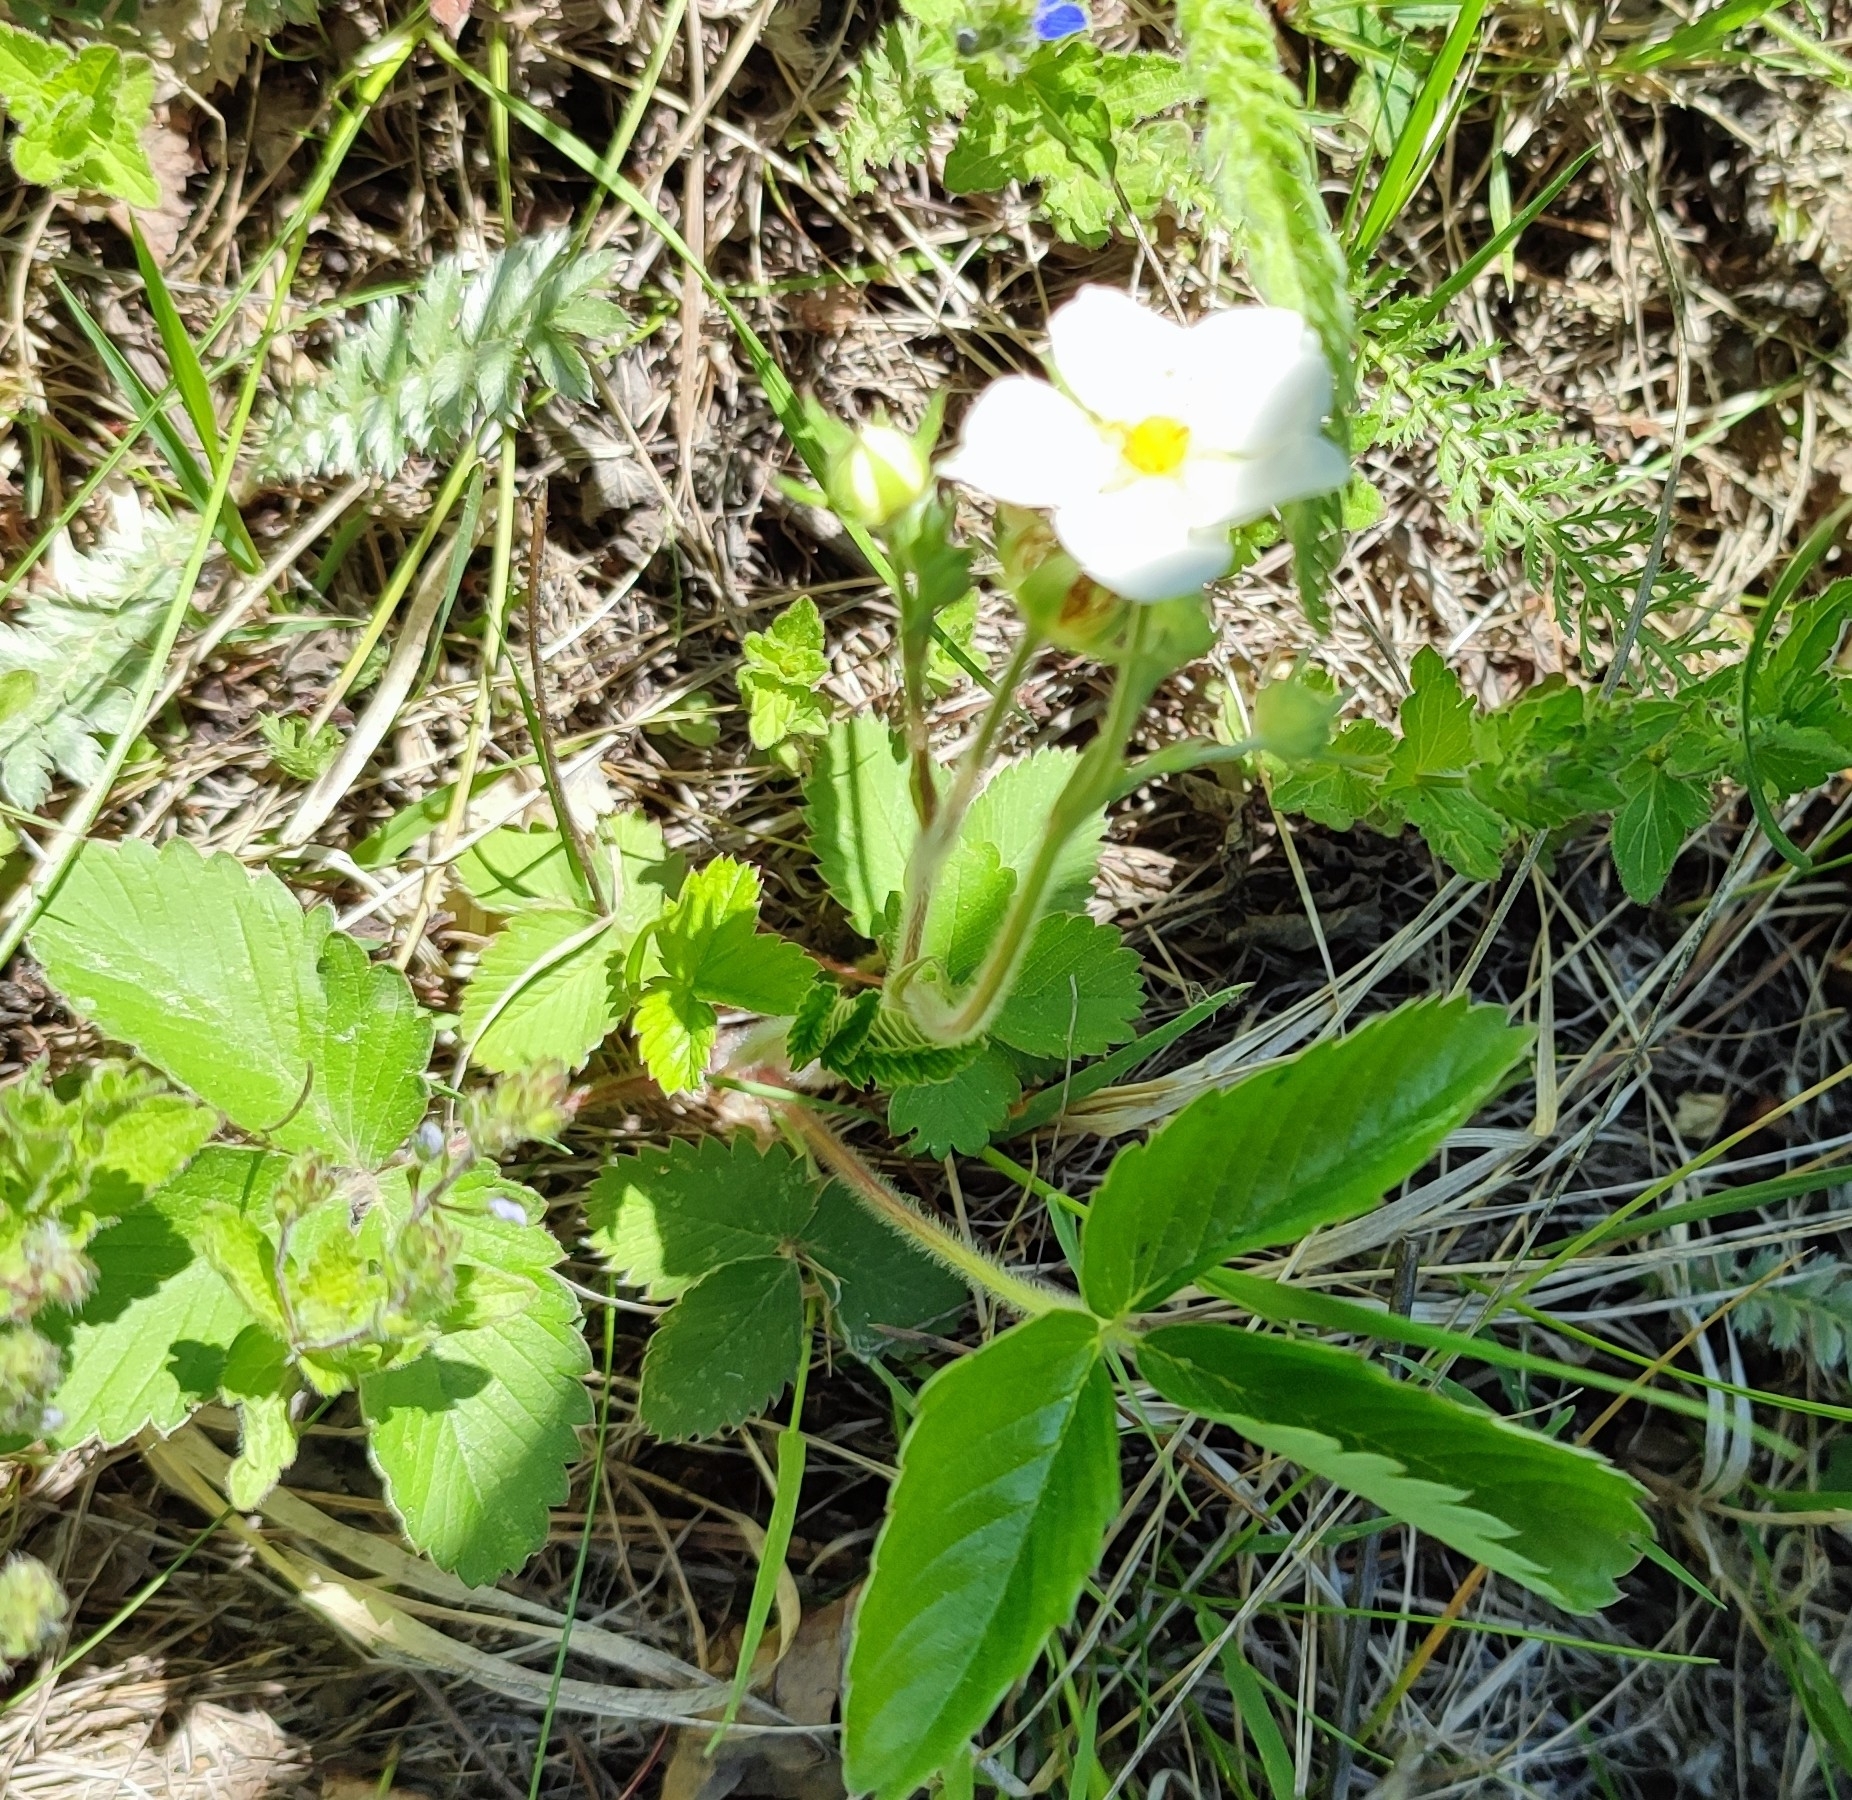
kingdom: Plantae
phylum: Tracheophyta
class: Magnoliopsida
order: Rosales
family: Rosaceae
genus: Fragaria
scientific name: Fragaria viridis
